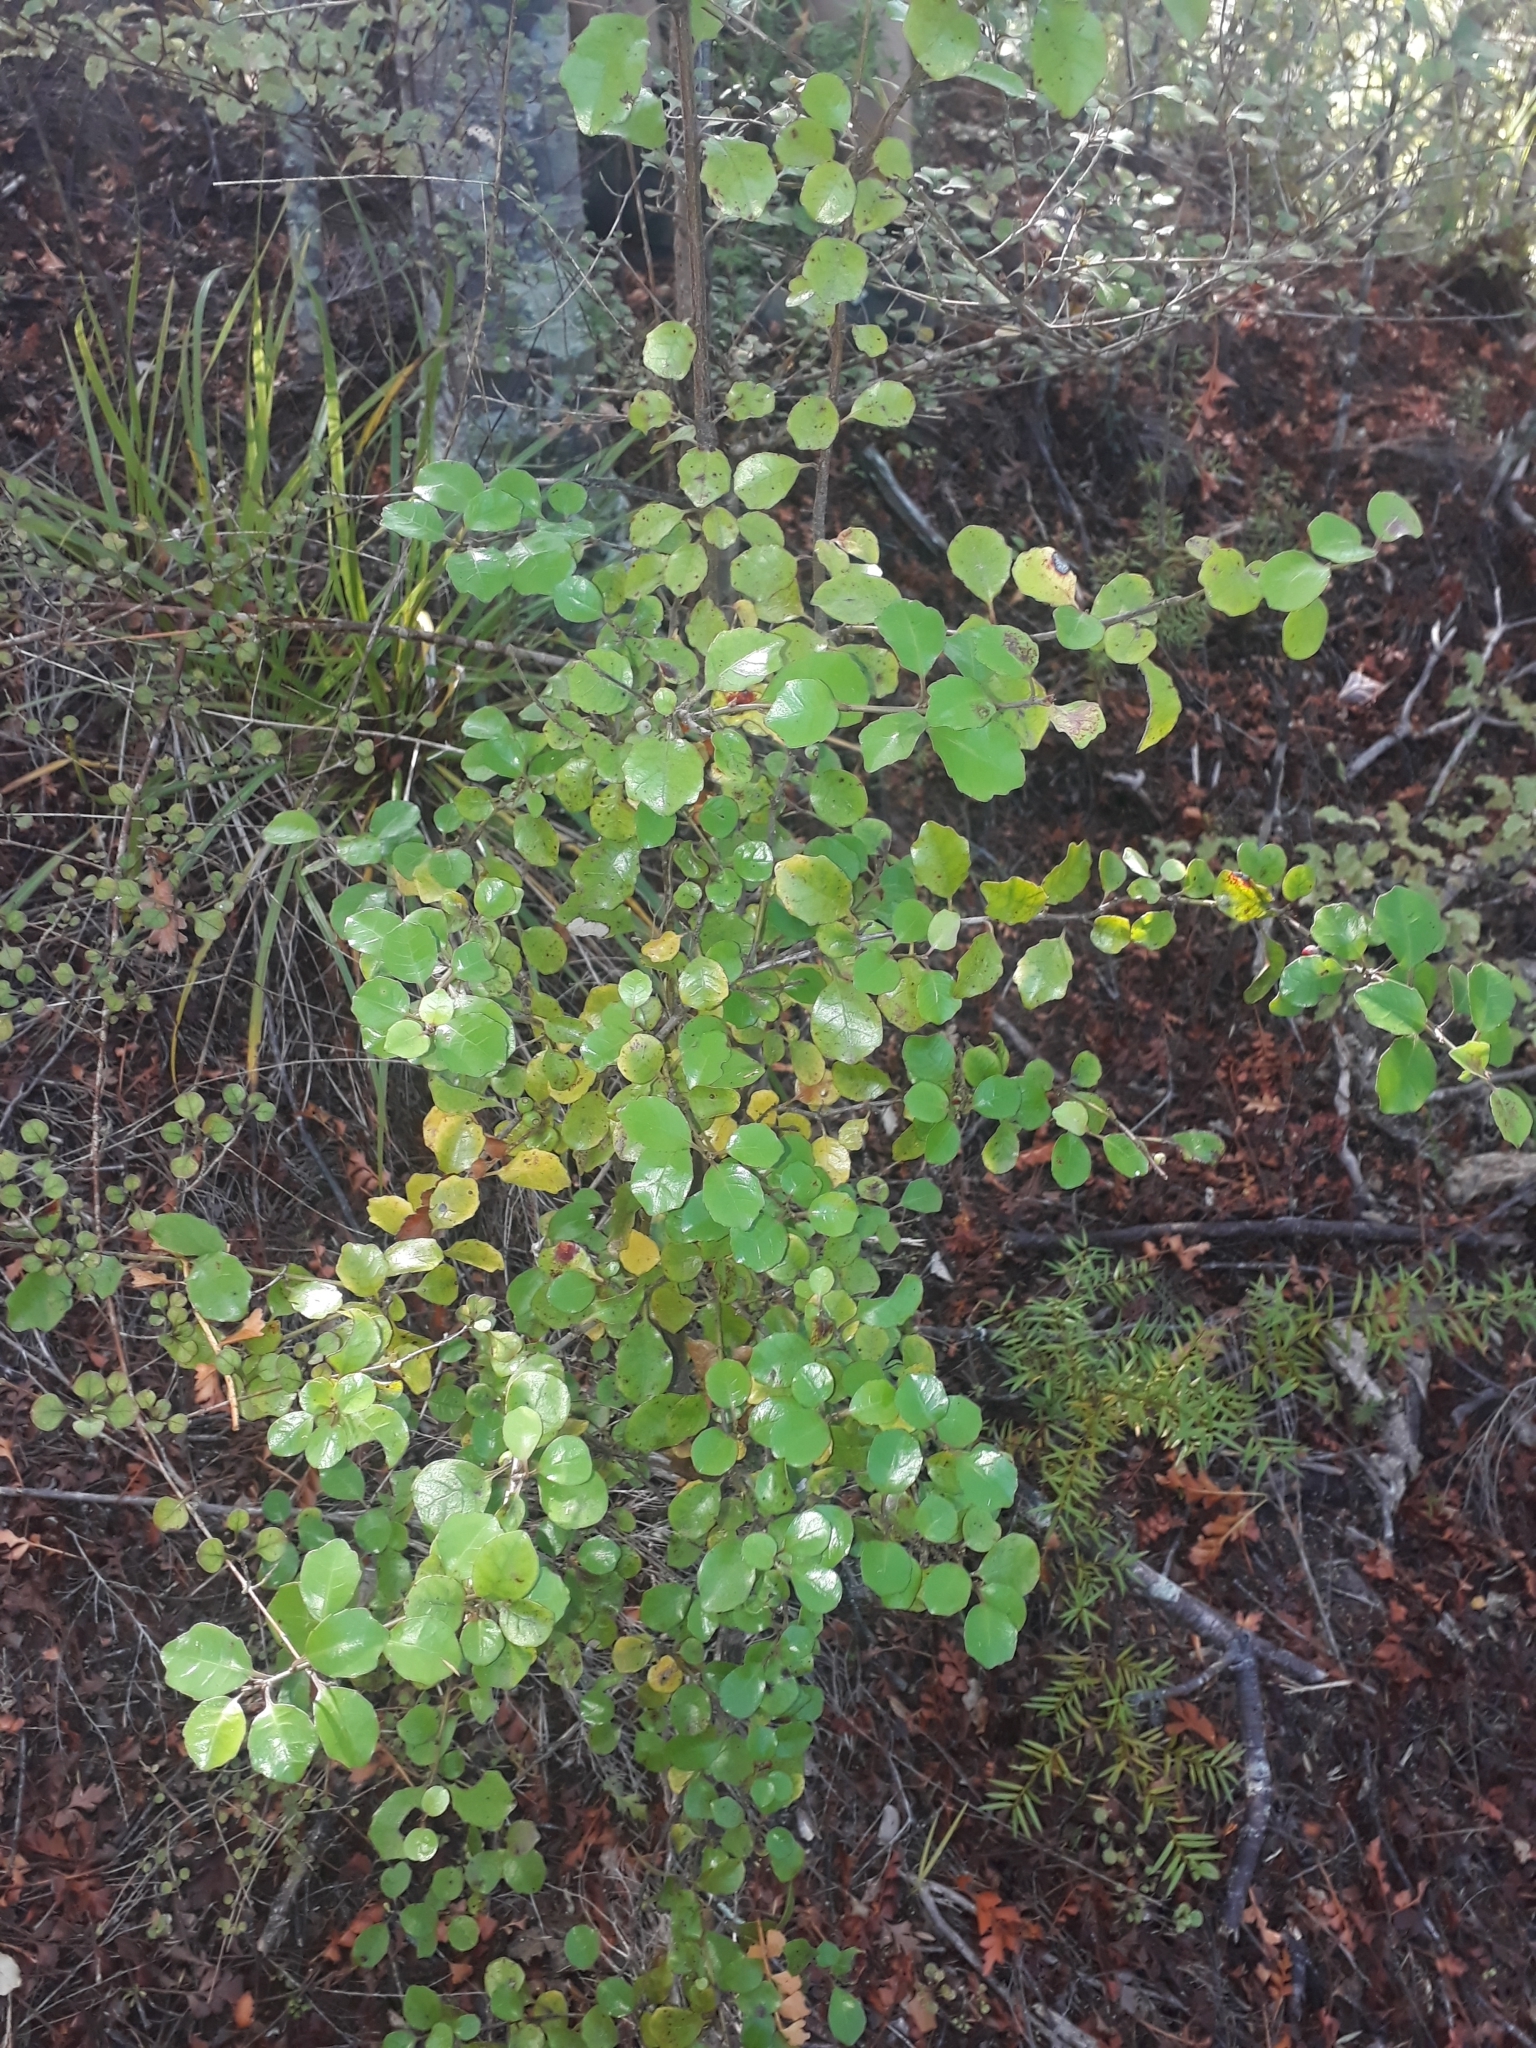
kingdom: Plantae
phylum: Tracheophyta
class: Magnoliopsida
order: Asterales
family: Alseuosmiaceae
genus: Alseuosmia
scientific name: Alseuosmia banksii
